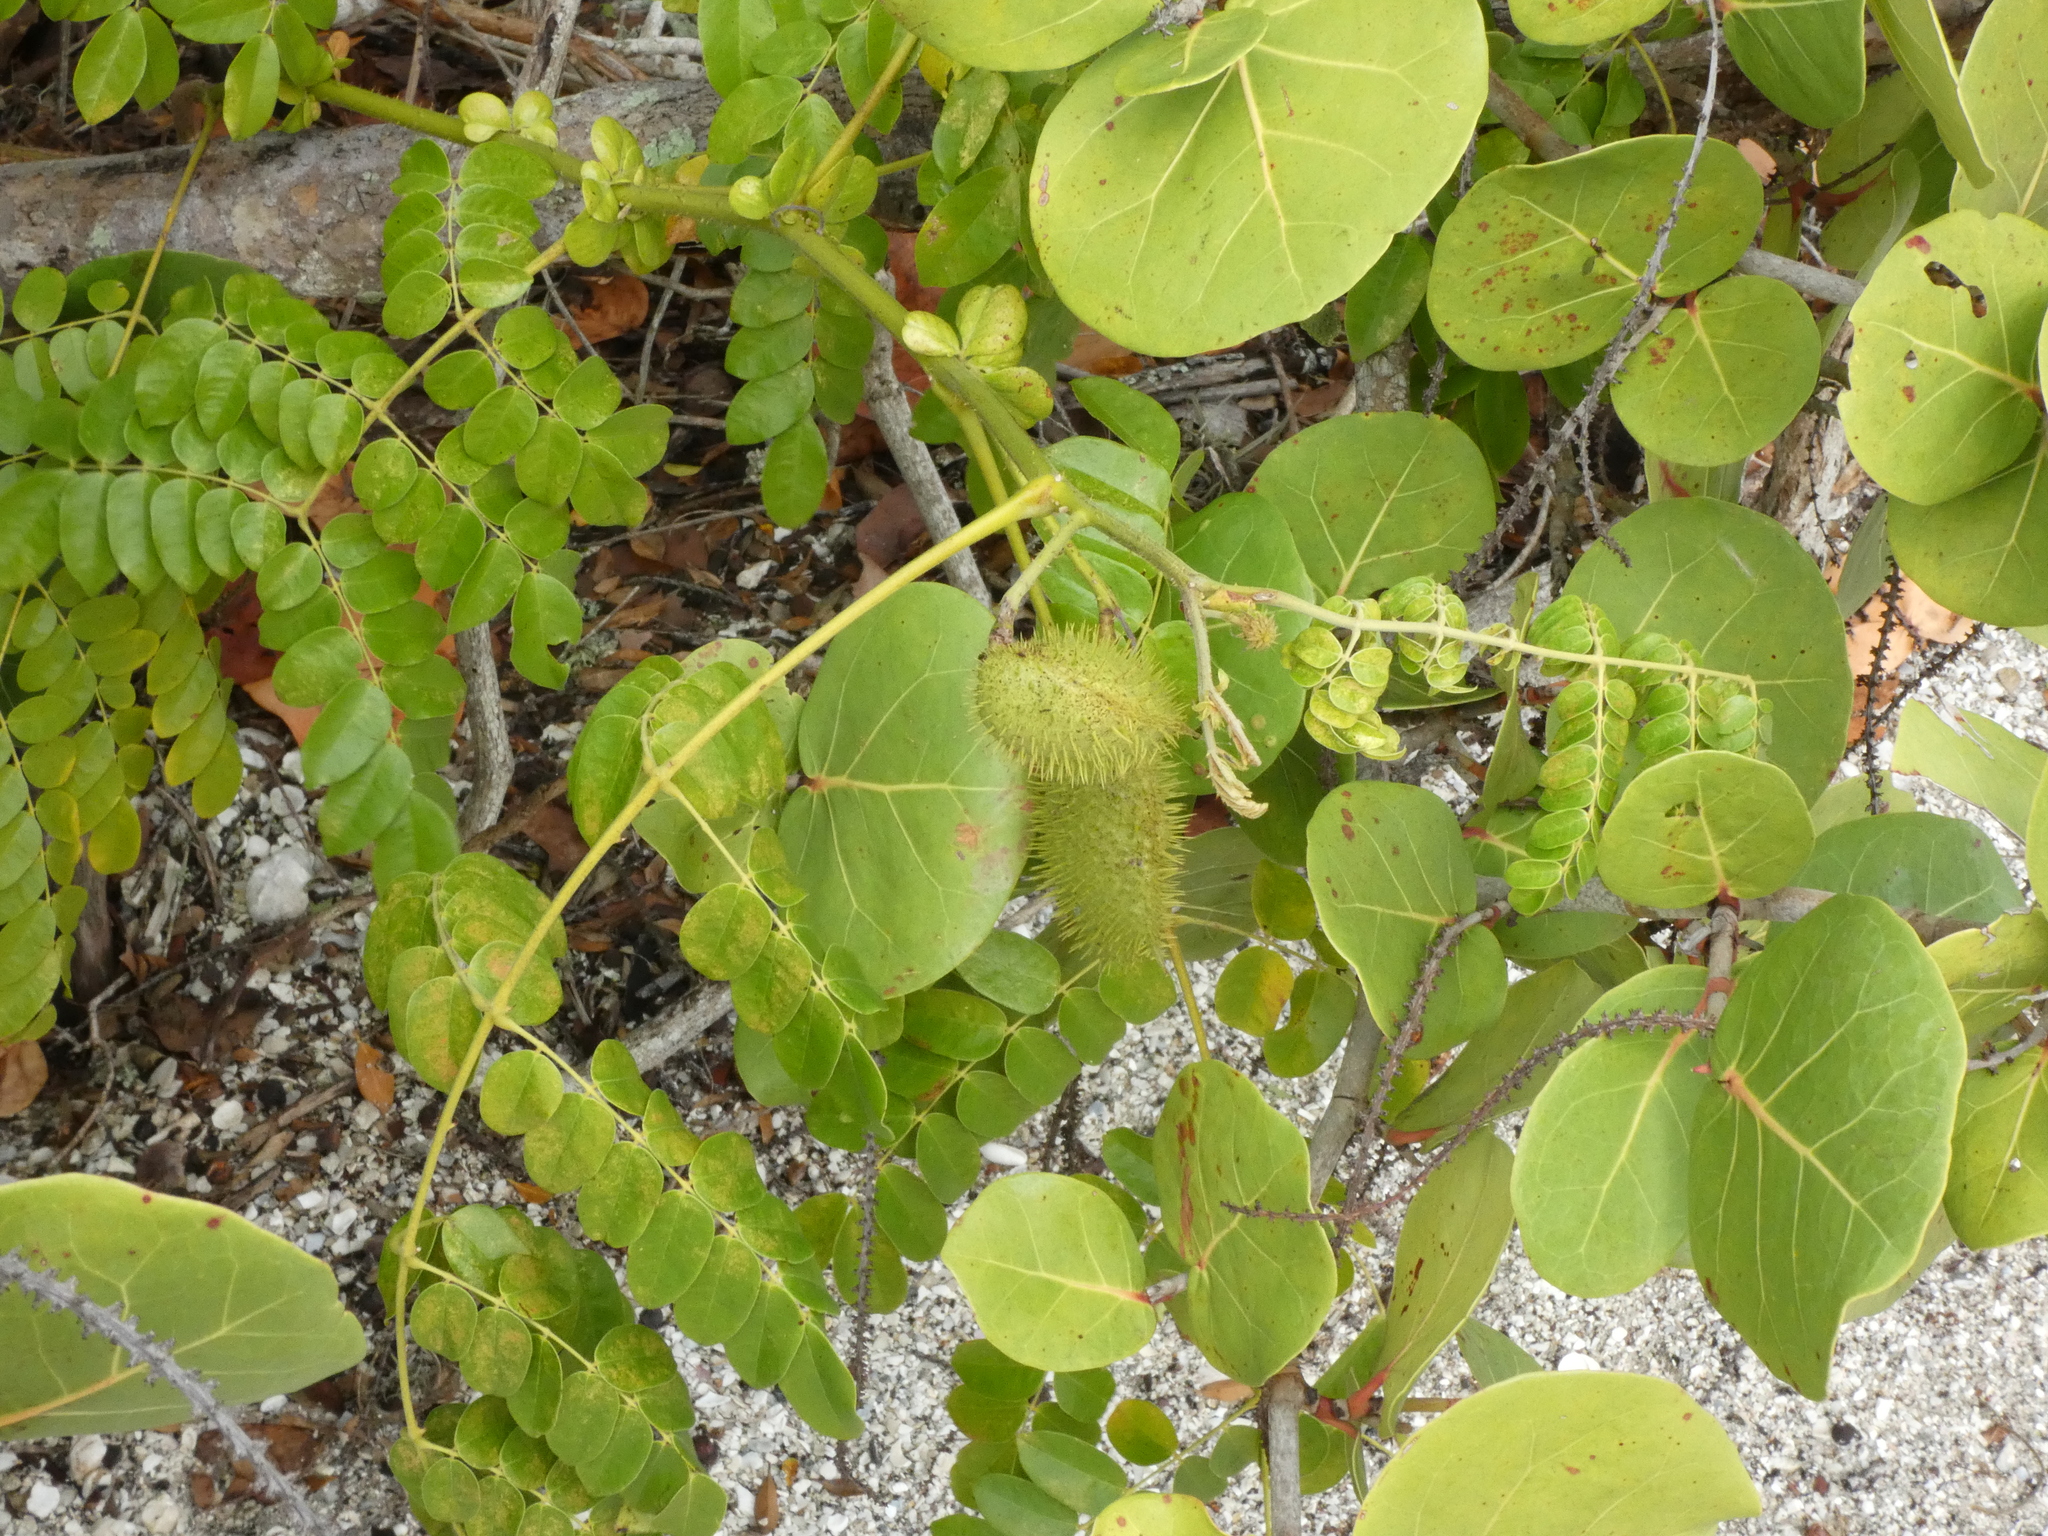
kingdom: Plantae
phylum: Tracheophyta
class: Magnoliopsida
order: Fabales
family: Fabaceae
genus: Guilandina
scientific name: Guilandina bonduc
